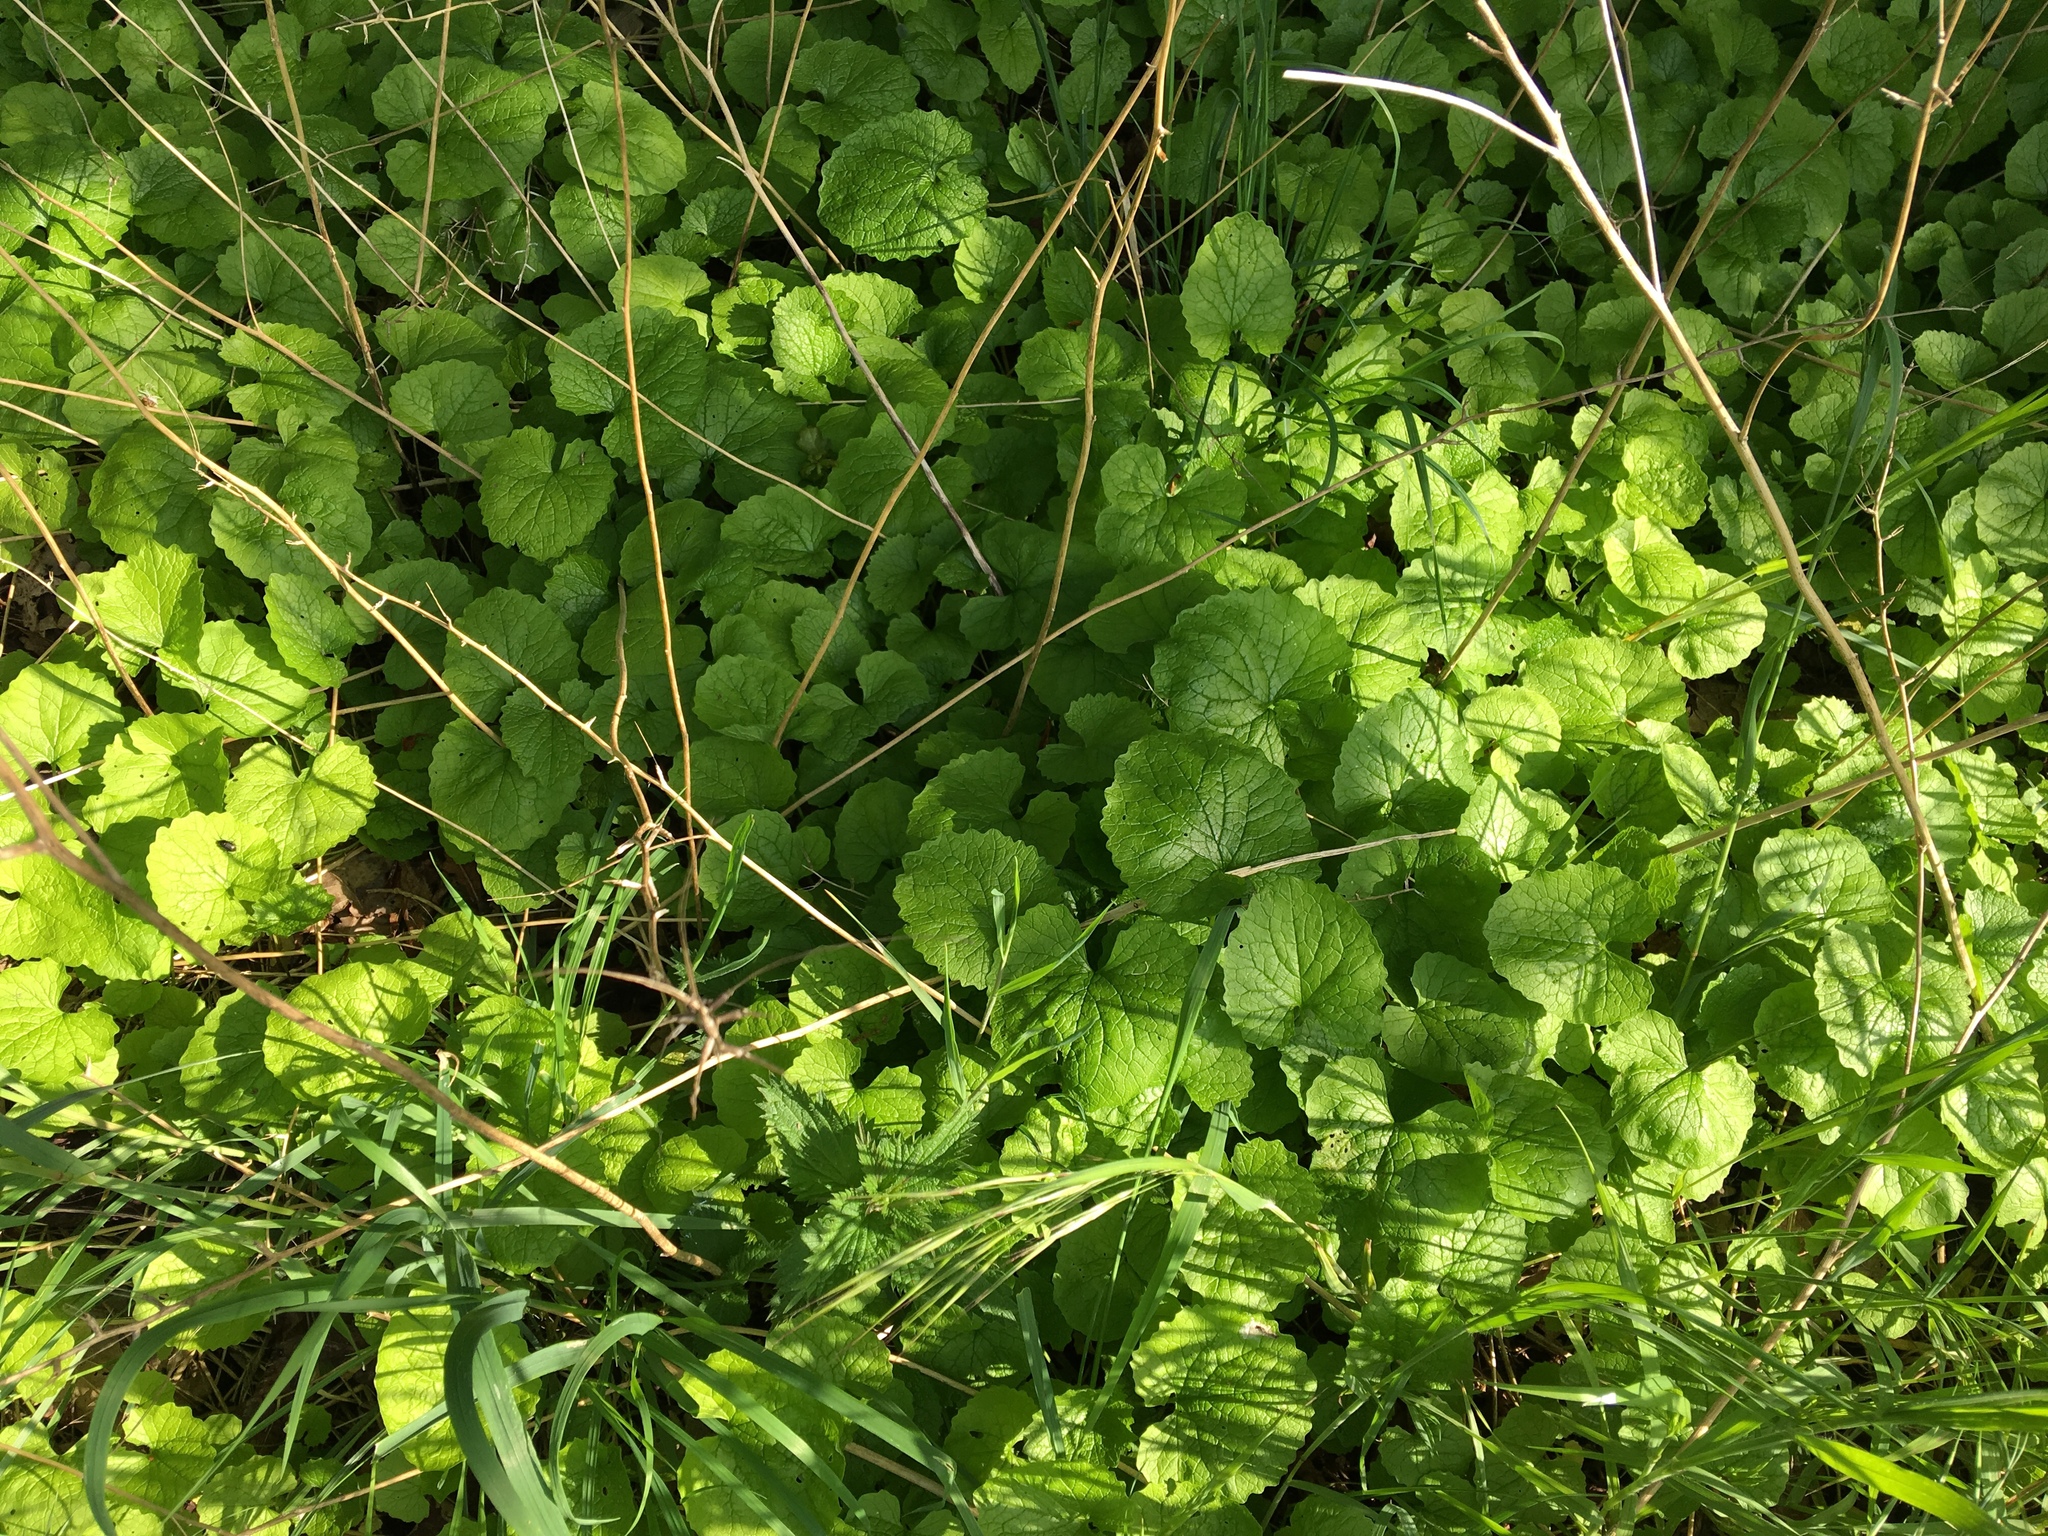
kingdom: Plantae
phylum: Tracheophyta
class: Magnoliopsida
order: Brassicales
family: Brassicaceae
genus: Alliaria
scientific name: Alliaria petiolata
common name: Garlic mustard
